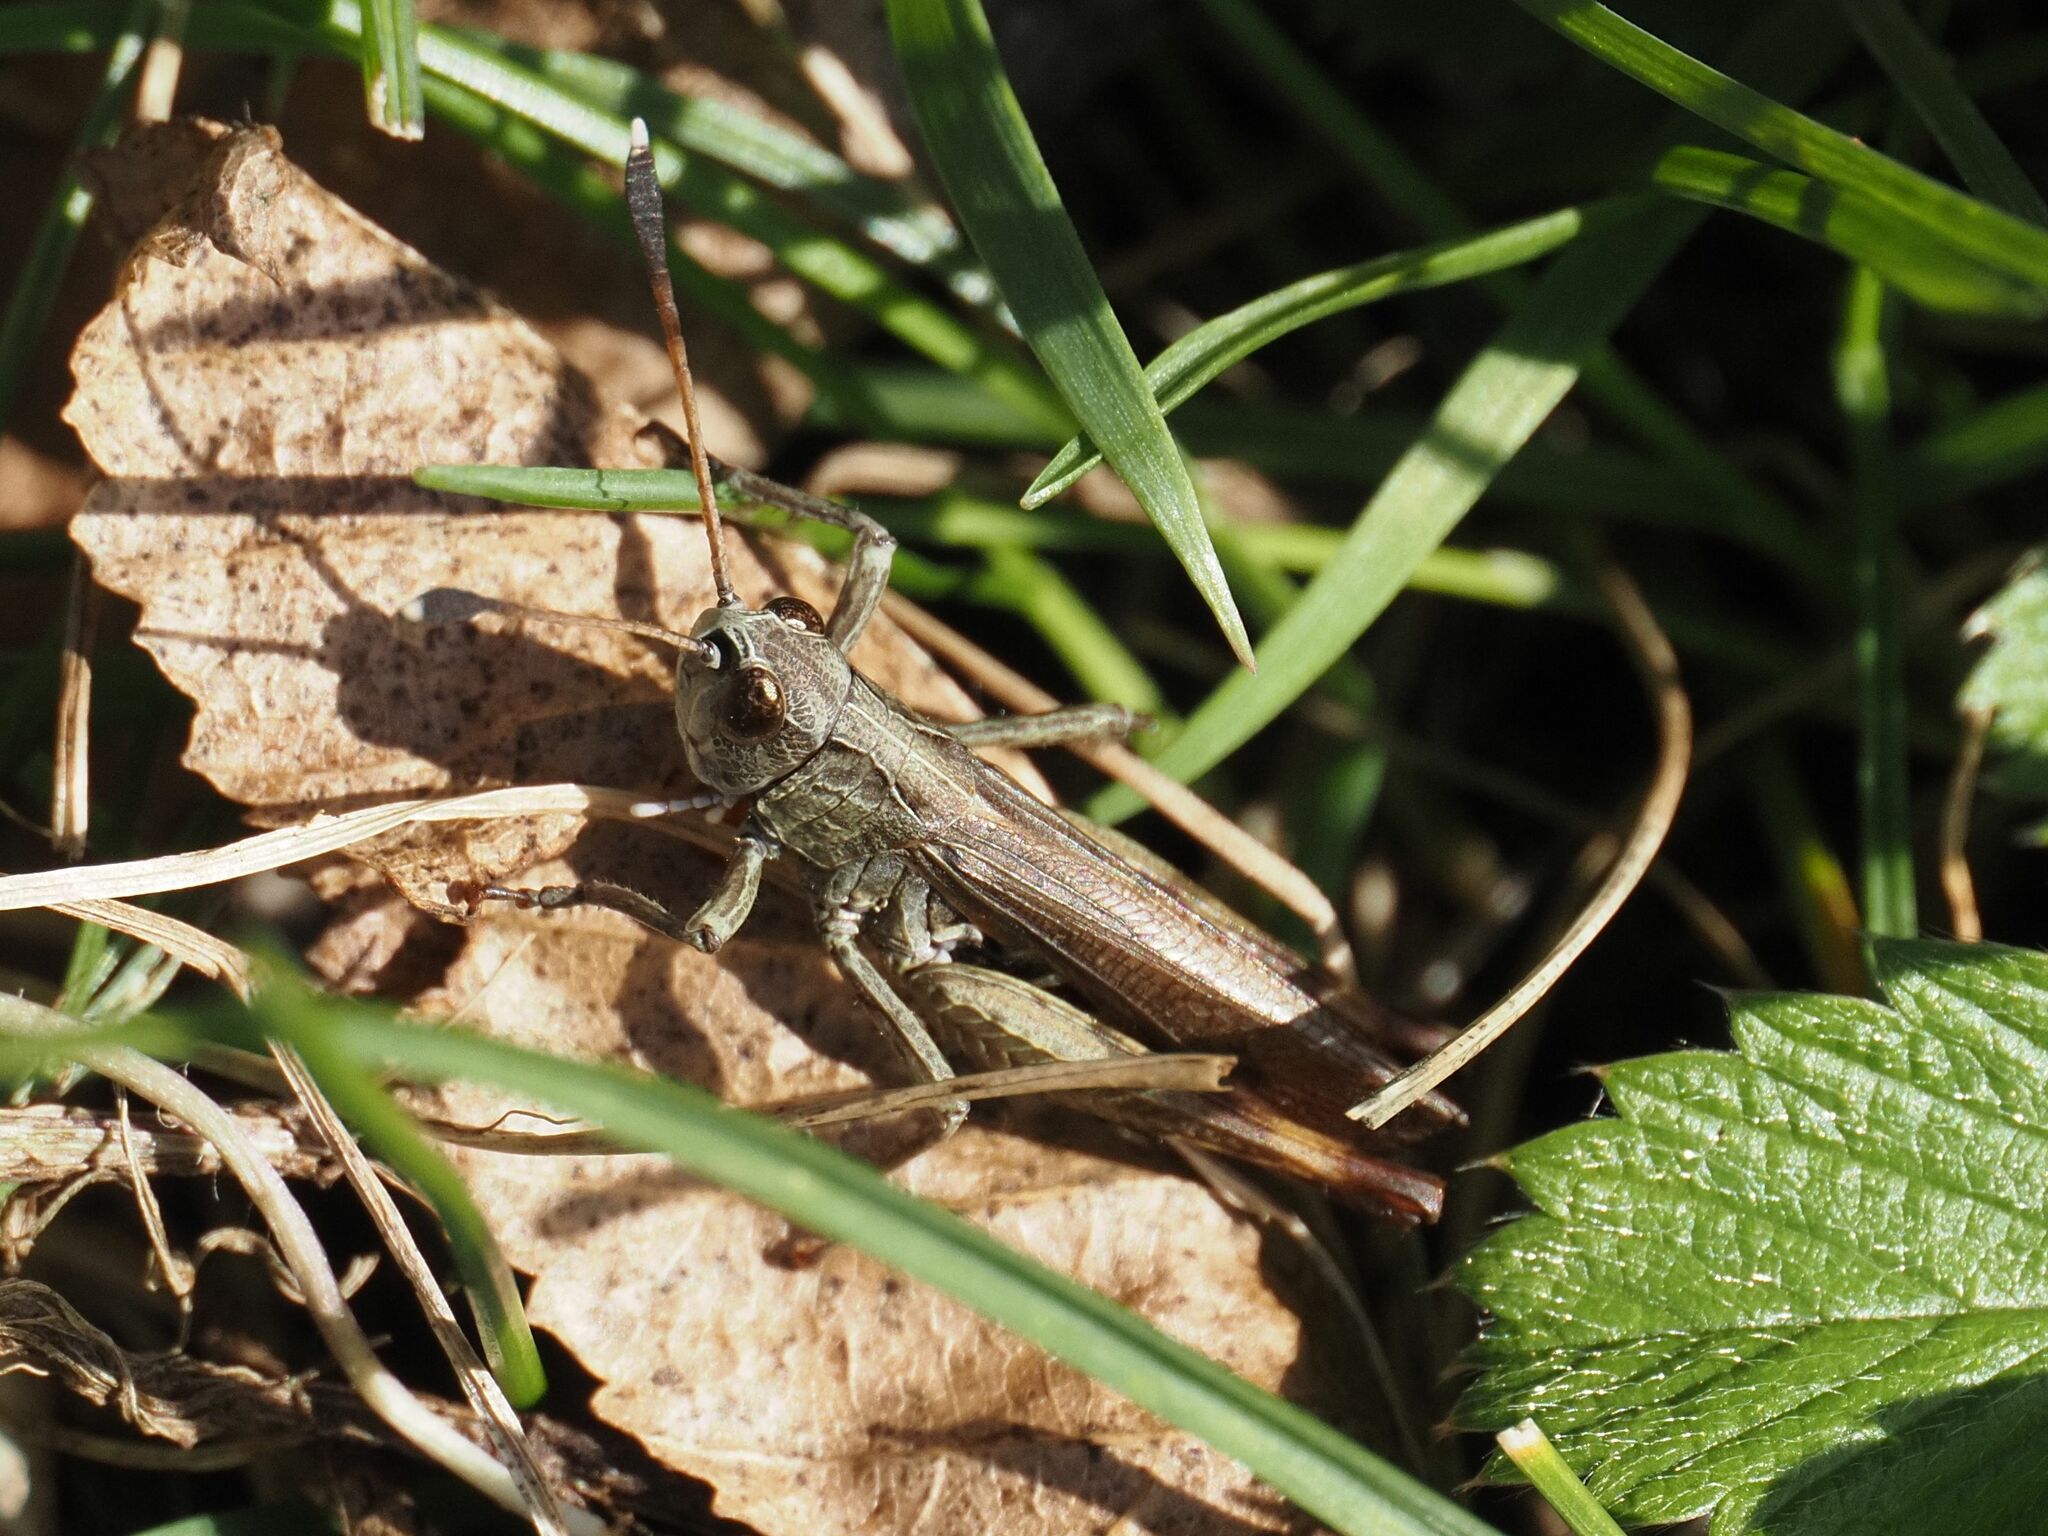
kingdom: Animalia
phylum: Arthropoda
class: Insecta
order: Orthoptera
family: Acrididae
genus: Gomphocerippus
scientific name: Gomphocerippus rufus
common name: Rufous grasshopper
